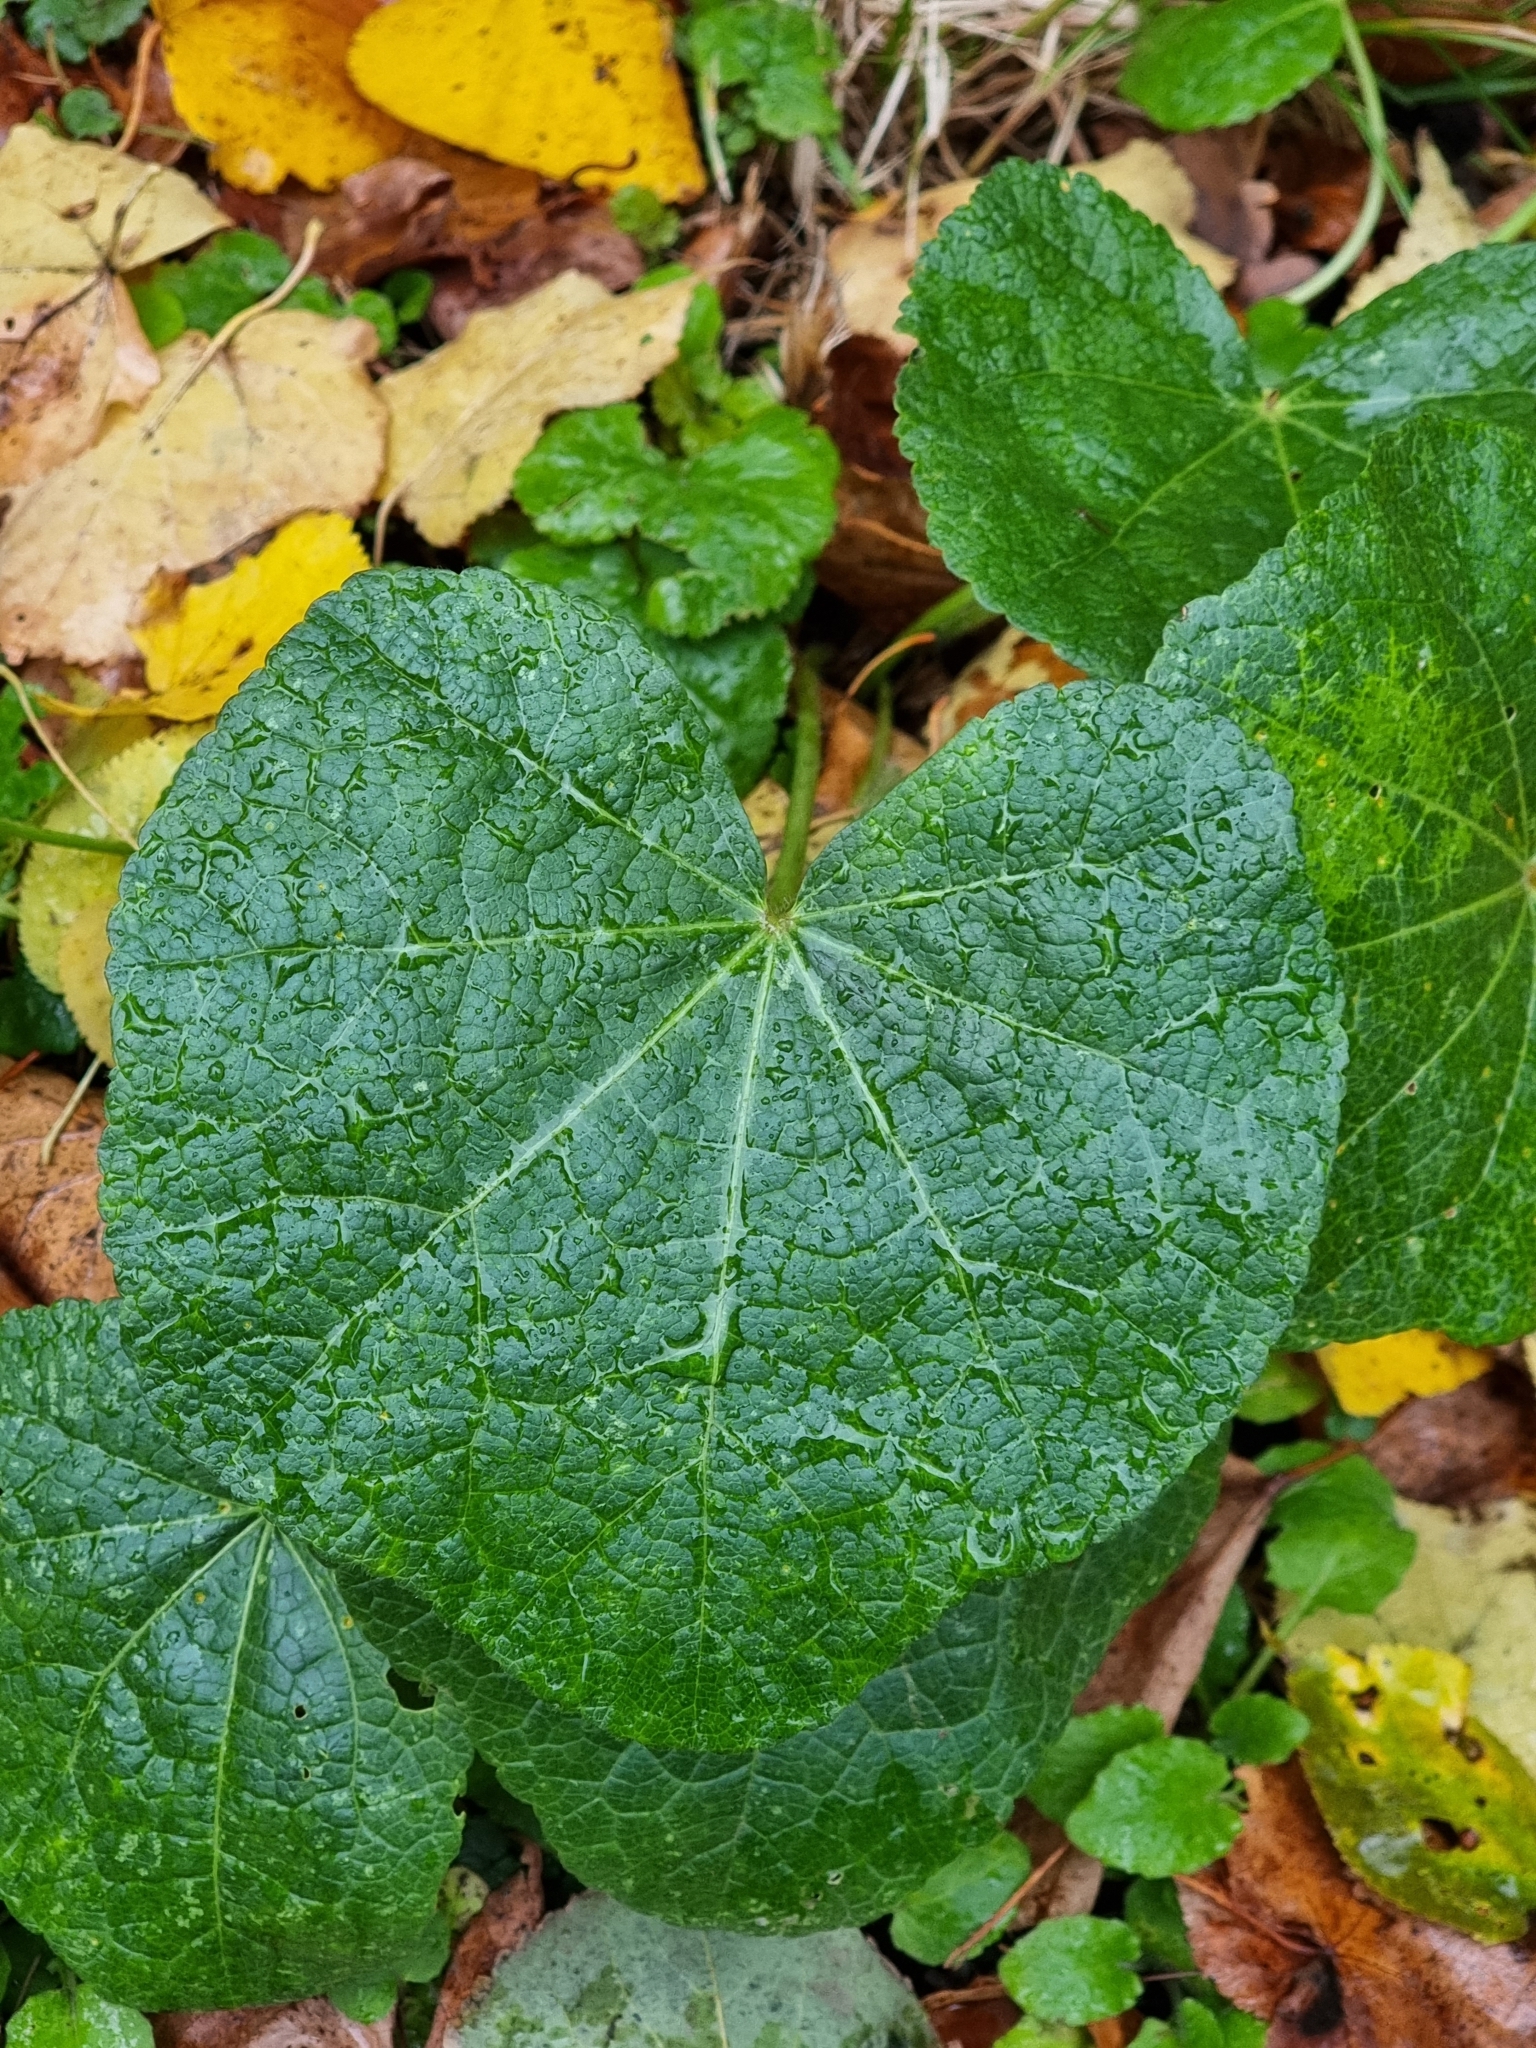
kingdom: Plantae
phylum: Tracheophyta
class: Magnoliopsida
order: Malvales
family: Malvaceae
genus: Alcea
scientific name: Alcea rosea
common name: Hollyhock
